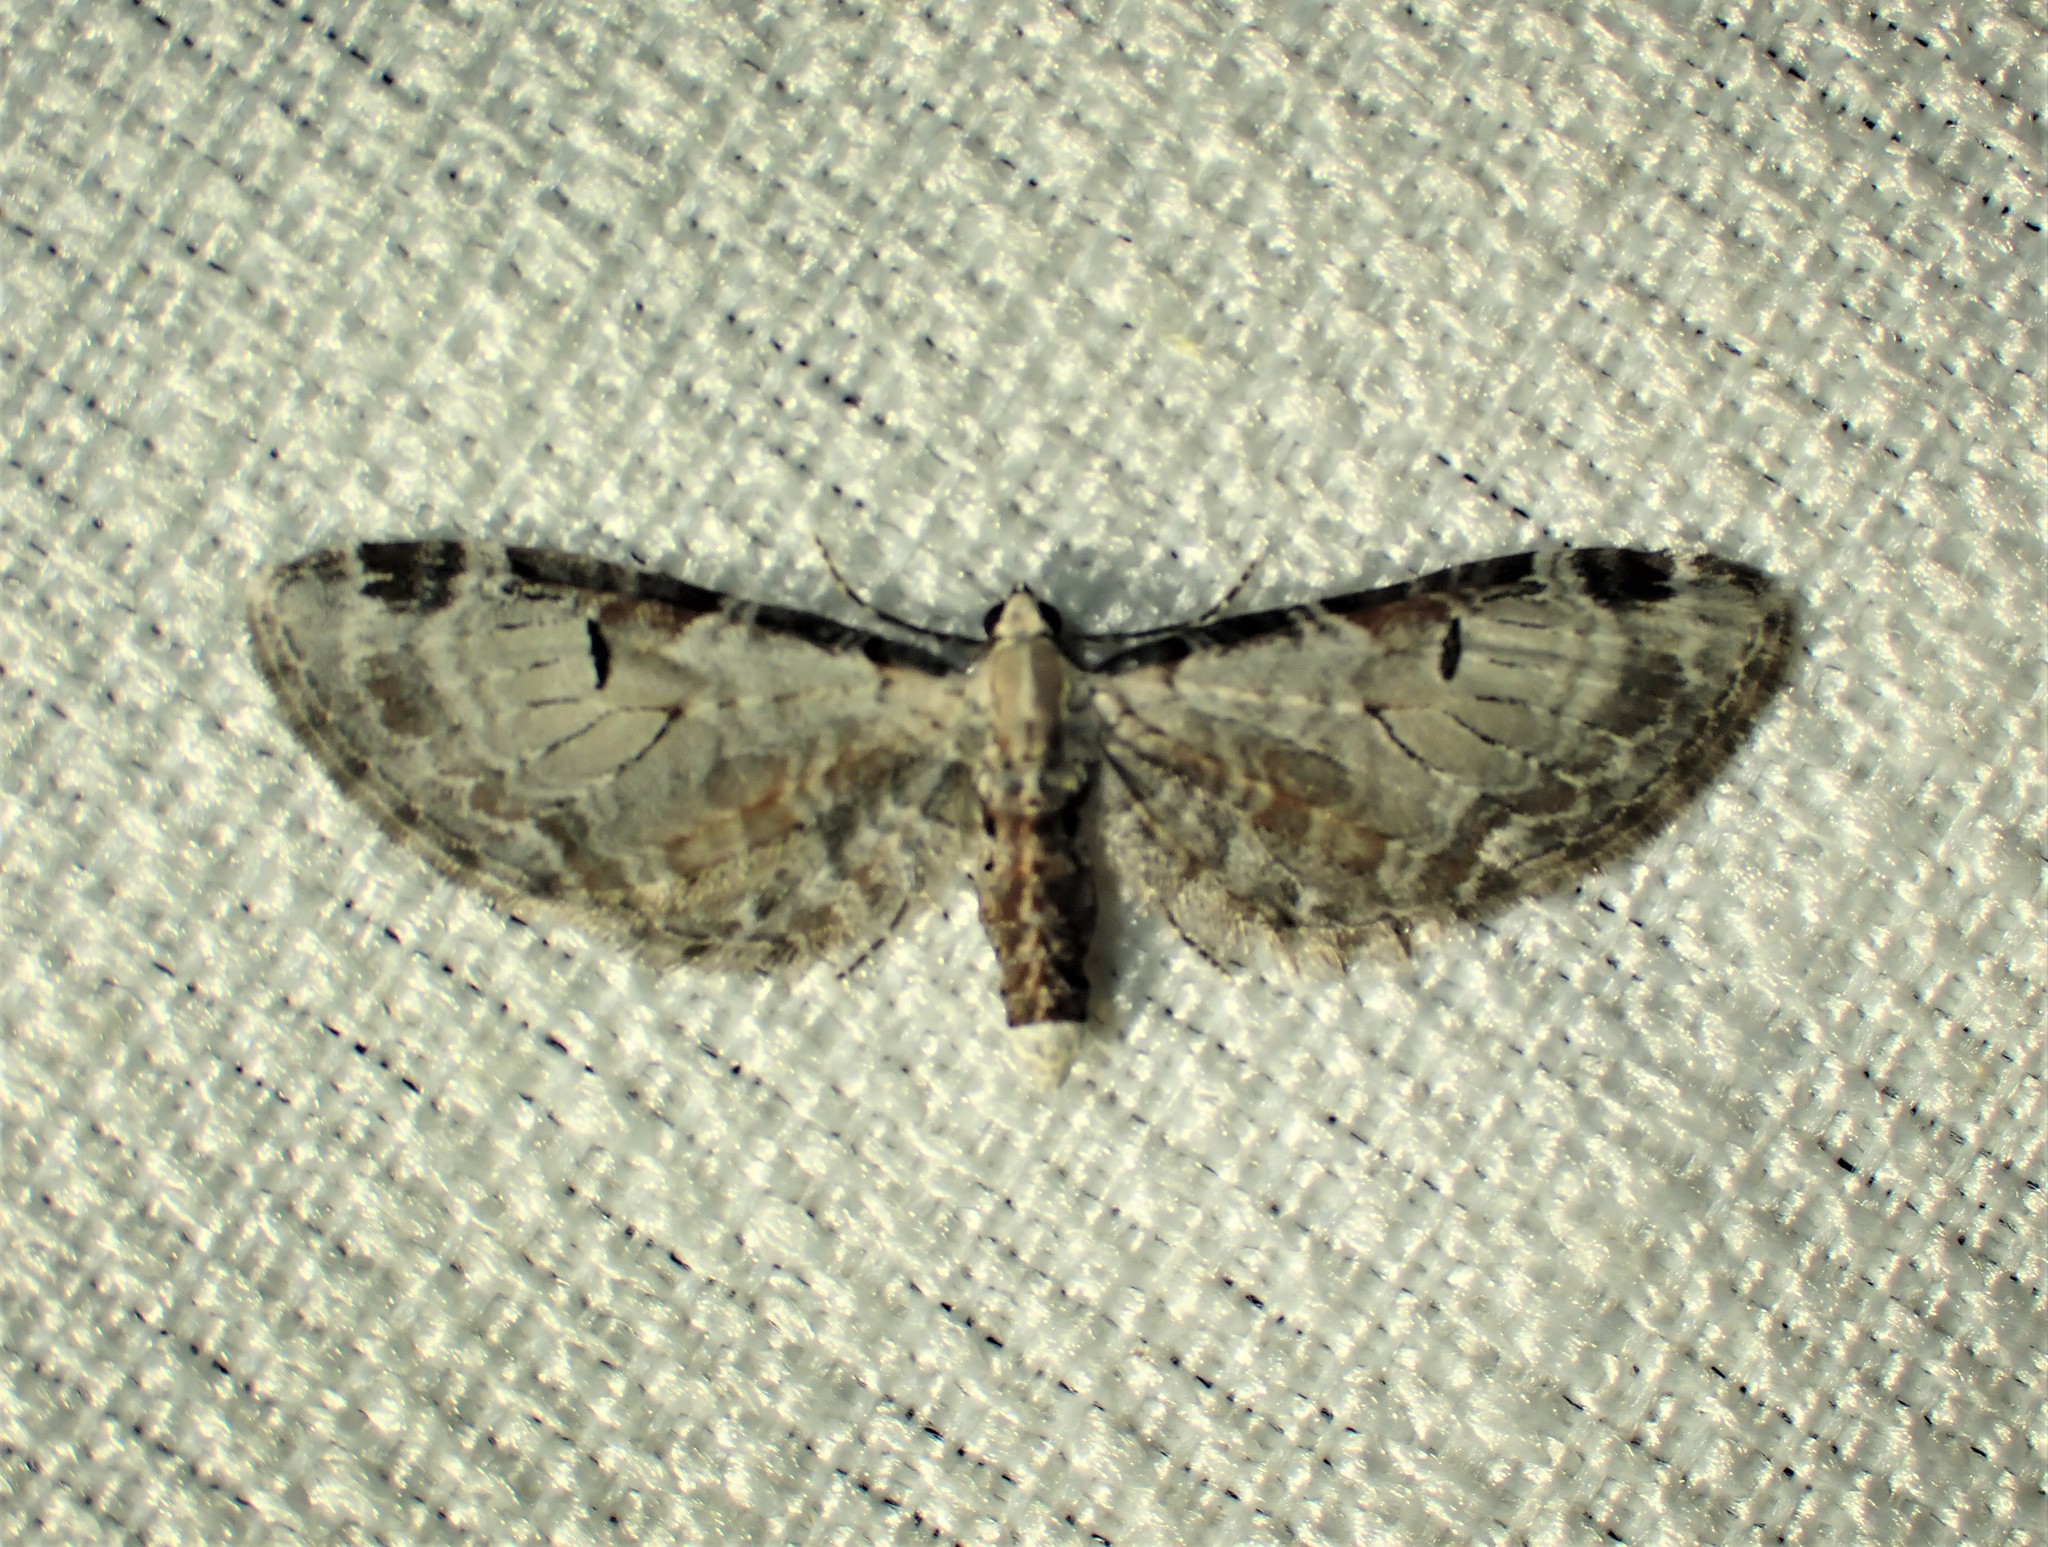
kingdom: Animalia
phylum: Arthropoda
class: Insecta
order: Lepidoptera
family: Geometridae
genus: Eupithecia
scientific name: Eupithecia ravocostaliata
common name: Great varigated pug
